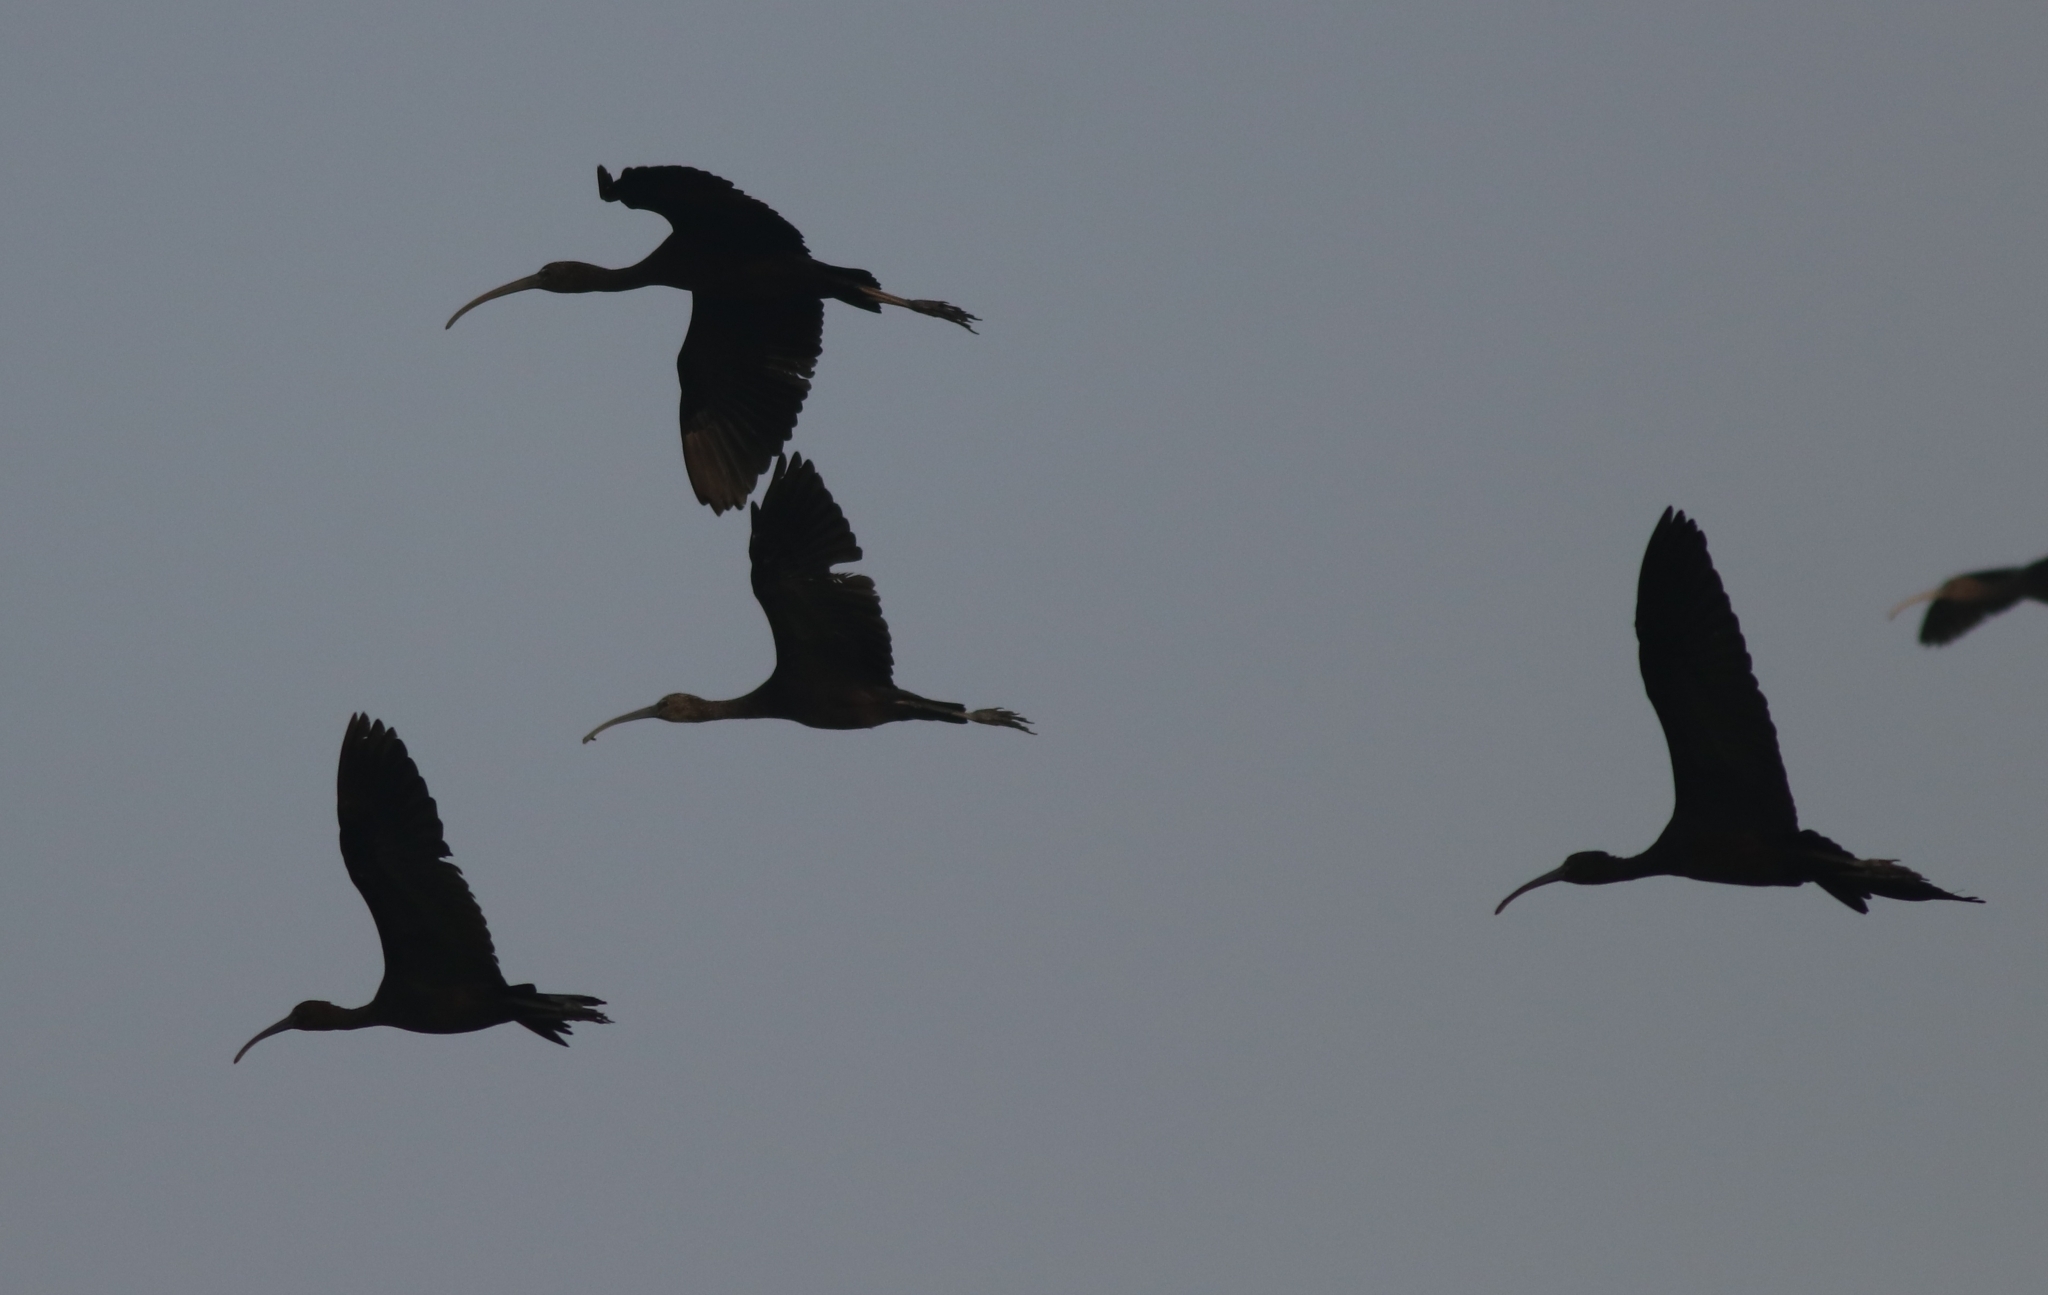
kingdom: Animalia
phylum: Chordata
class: Aves
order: Pelecaniformes
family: Threskiornithidae
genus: Plegadis
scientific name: Plegadis falcinellus
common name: Glossy ibis
